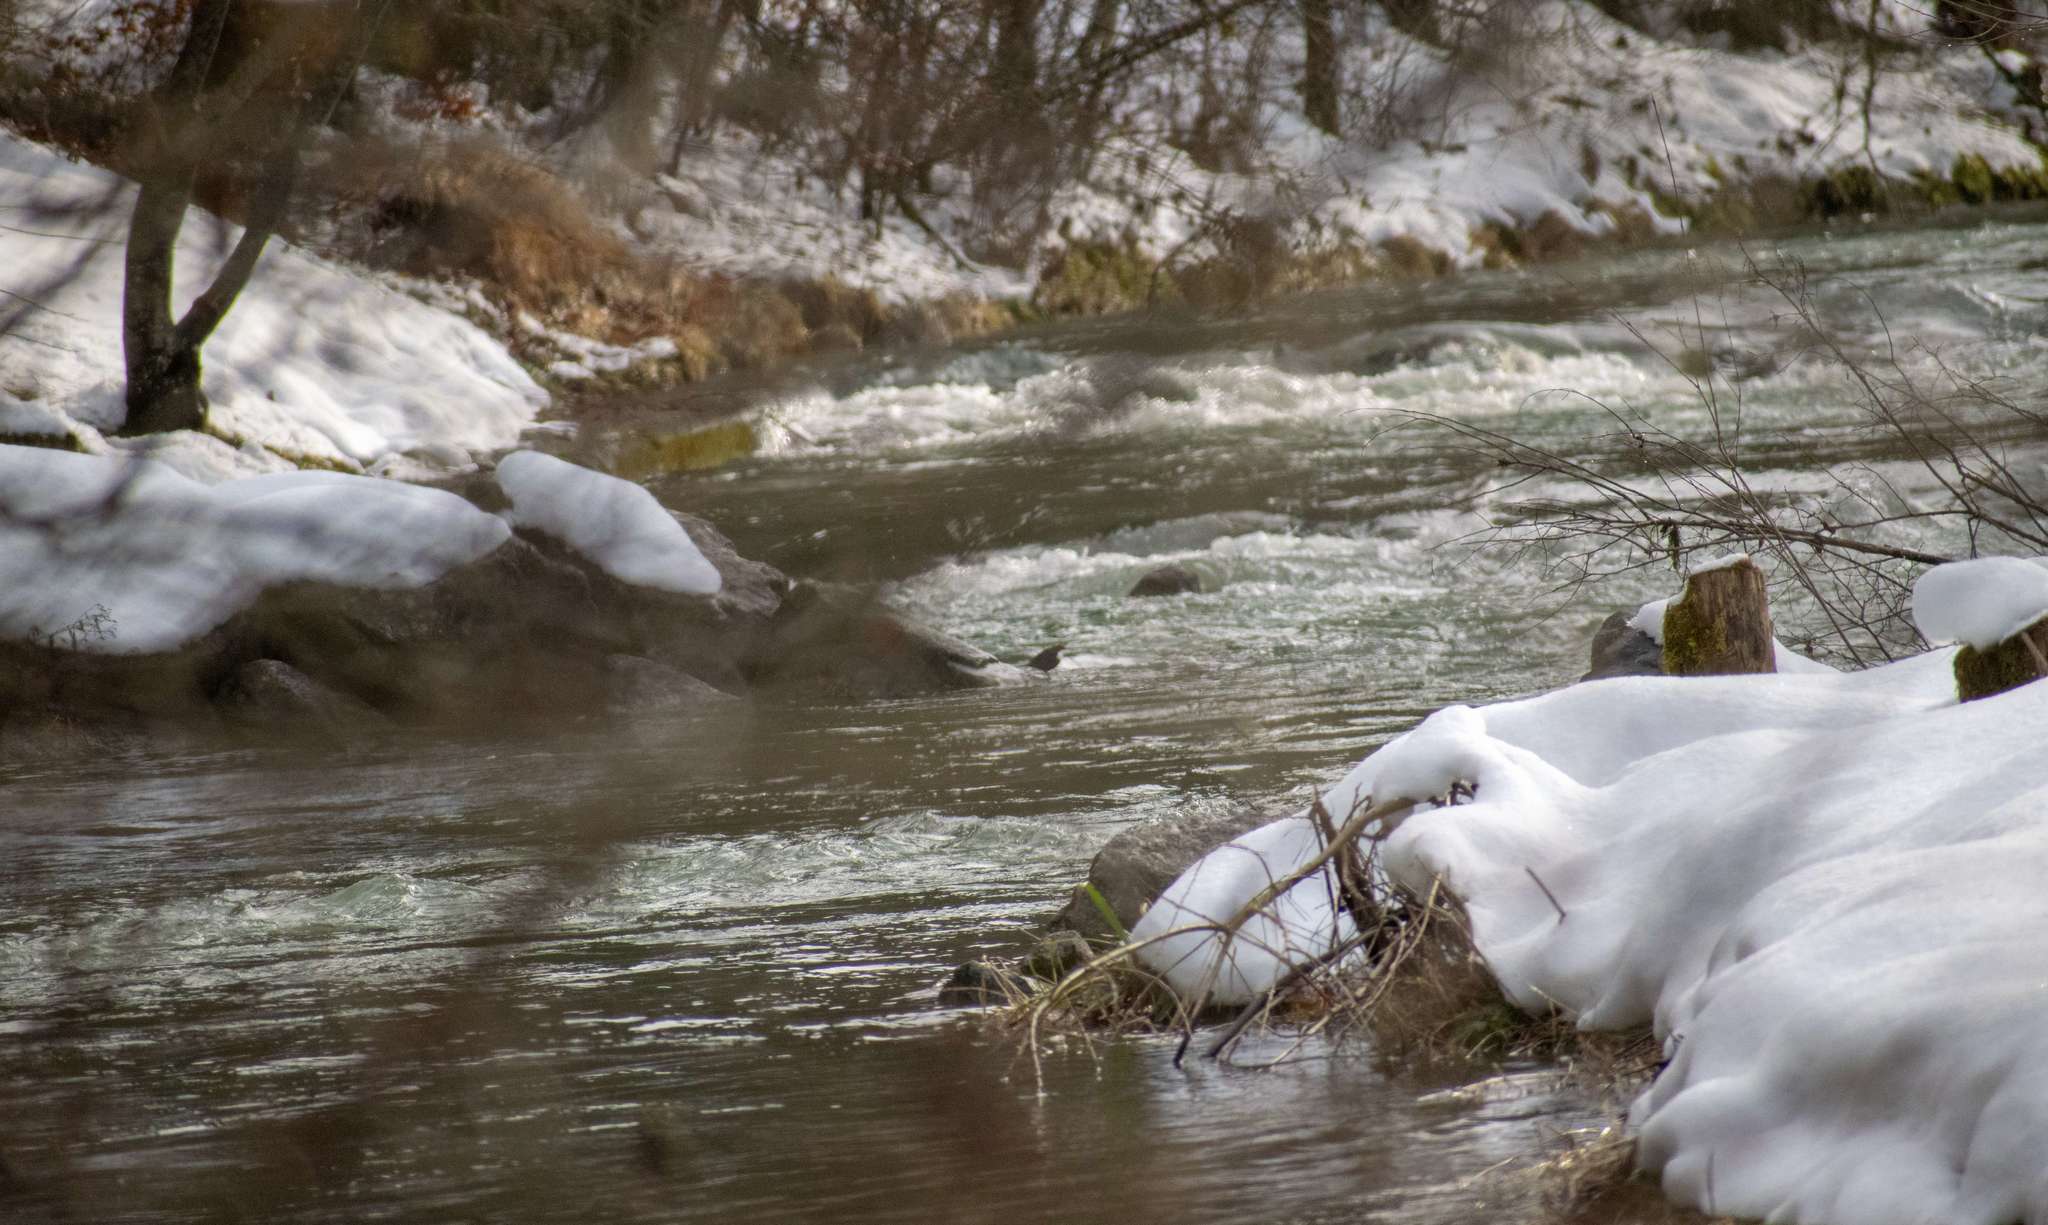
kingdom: Animalia
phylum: Chordata
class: Aves
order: Passeriformes
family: Cinclidae
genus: Cinclus
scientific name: Cinclus cinclus
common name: White-throated dipper
